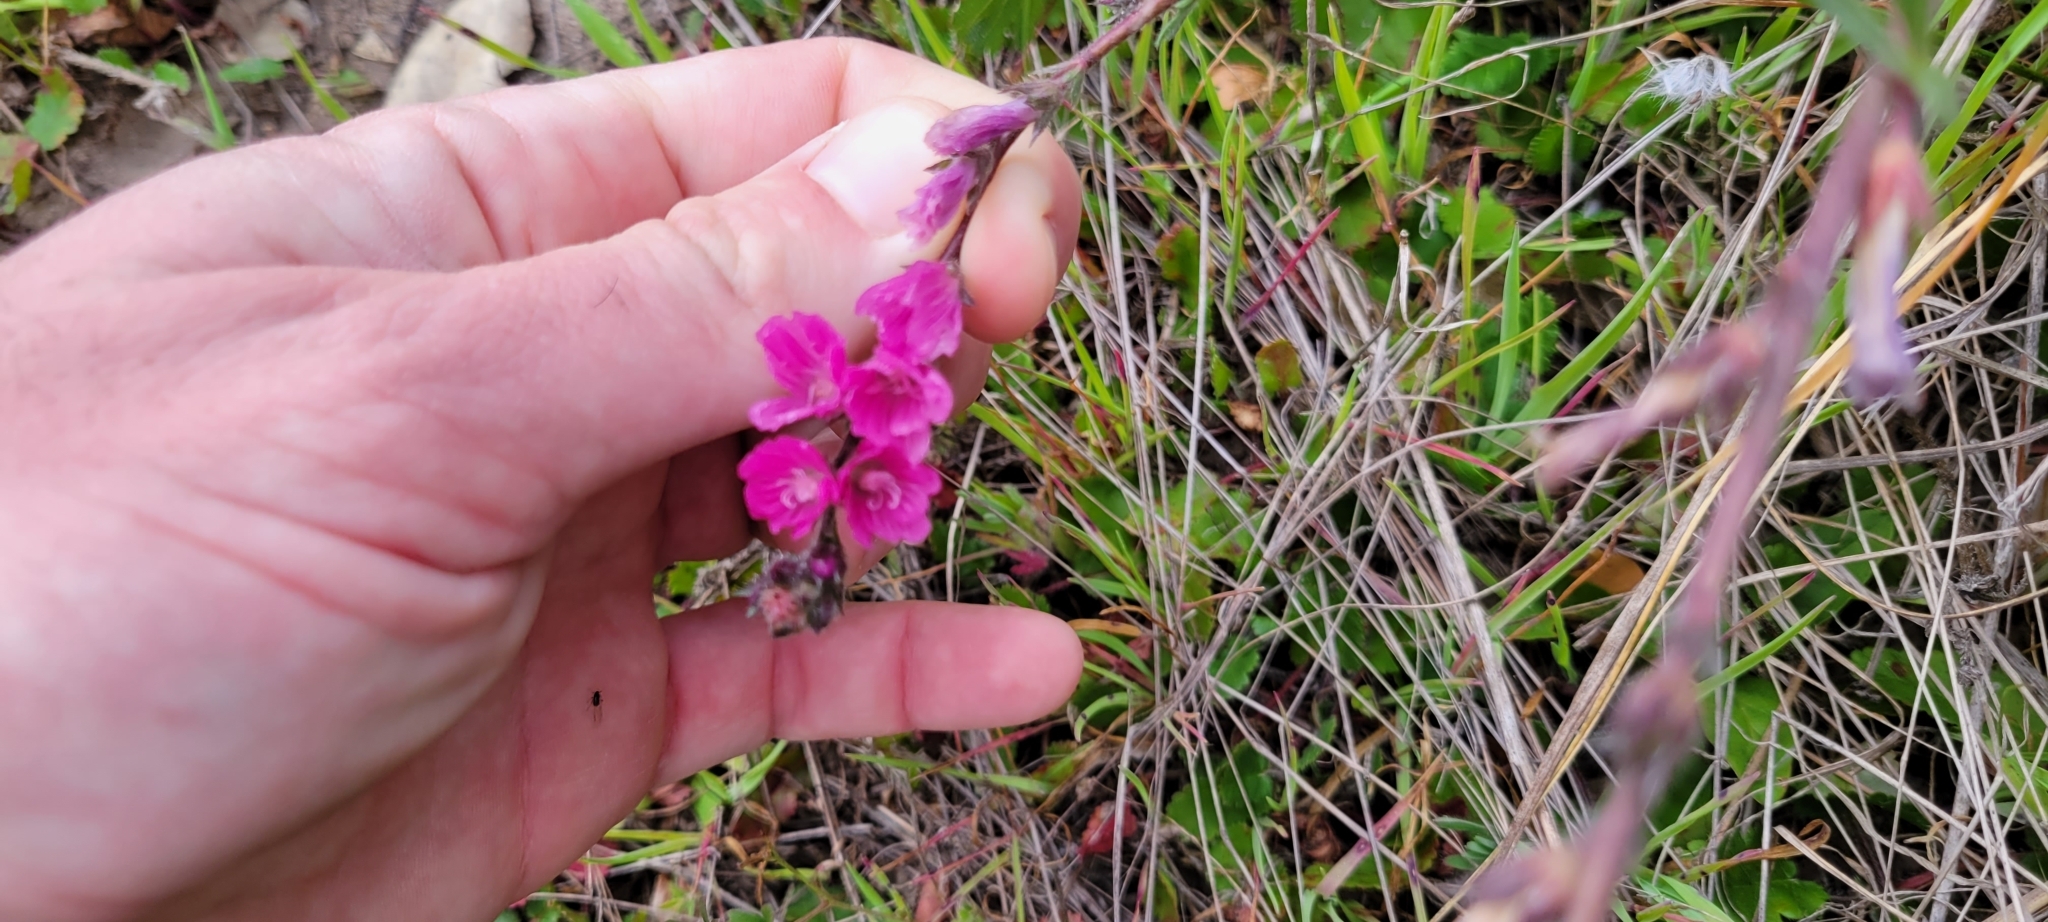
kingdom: Plantae
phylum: Tracheophyta
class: Magnoliopsida
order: Malvales
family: Malvaceae
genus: Sidalcea
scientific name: Sidalcea malviflora
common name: Greek mallow
